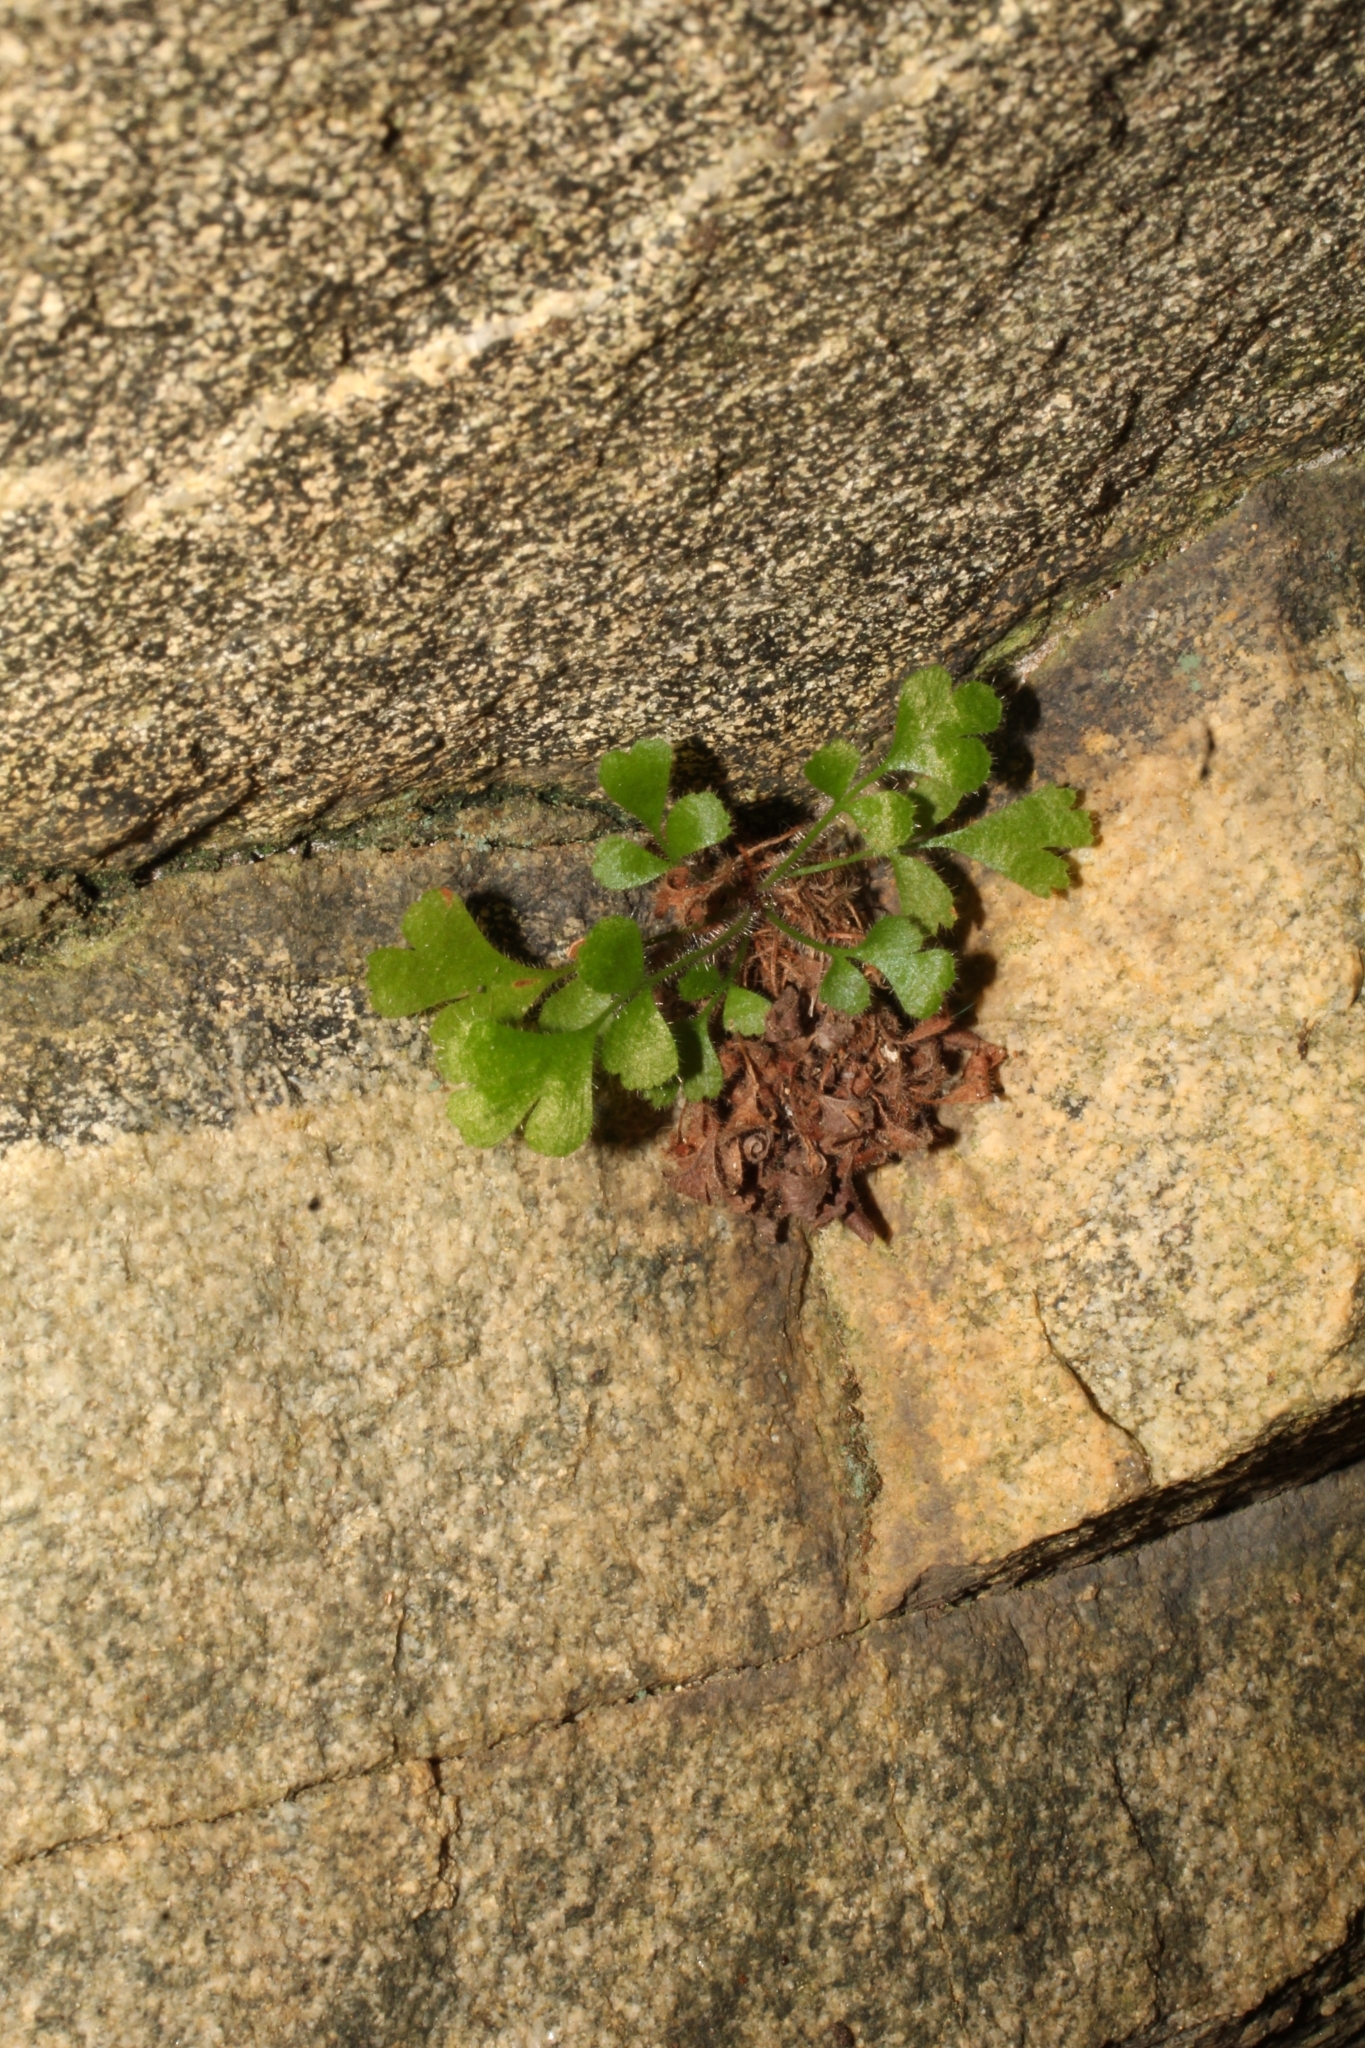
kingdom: Plantae
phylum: Tracheophyta
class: Polypodiopsida
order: Polypodiales
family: Aspleniaceae
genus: Asplenium
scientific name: Asplenium subglandulosum
